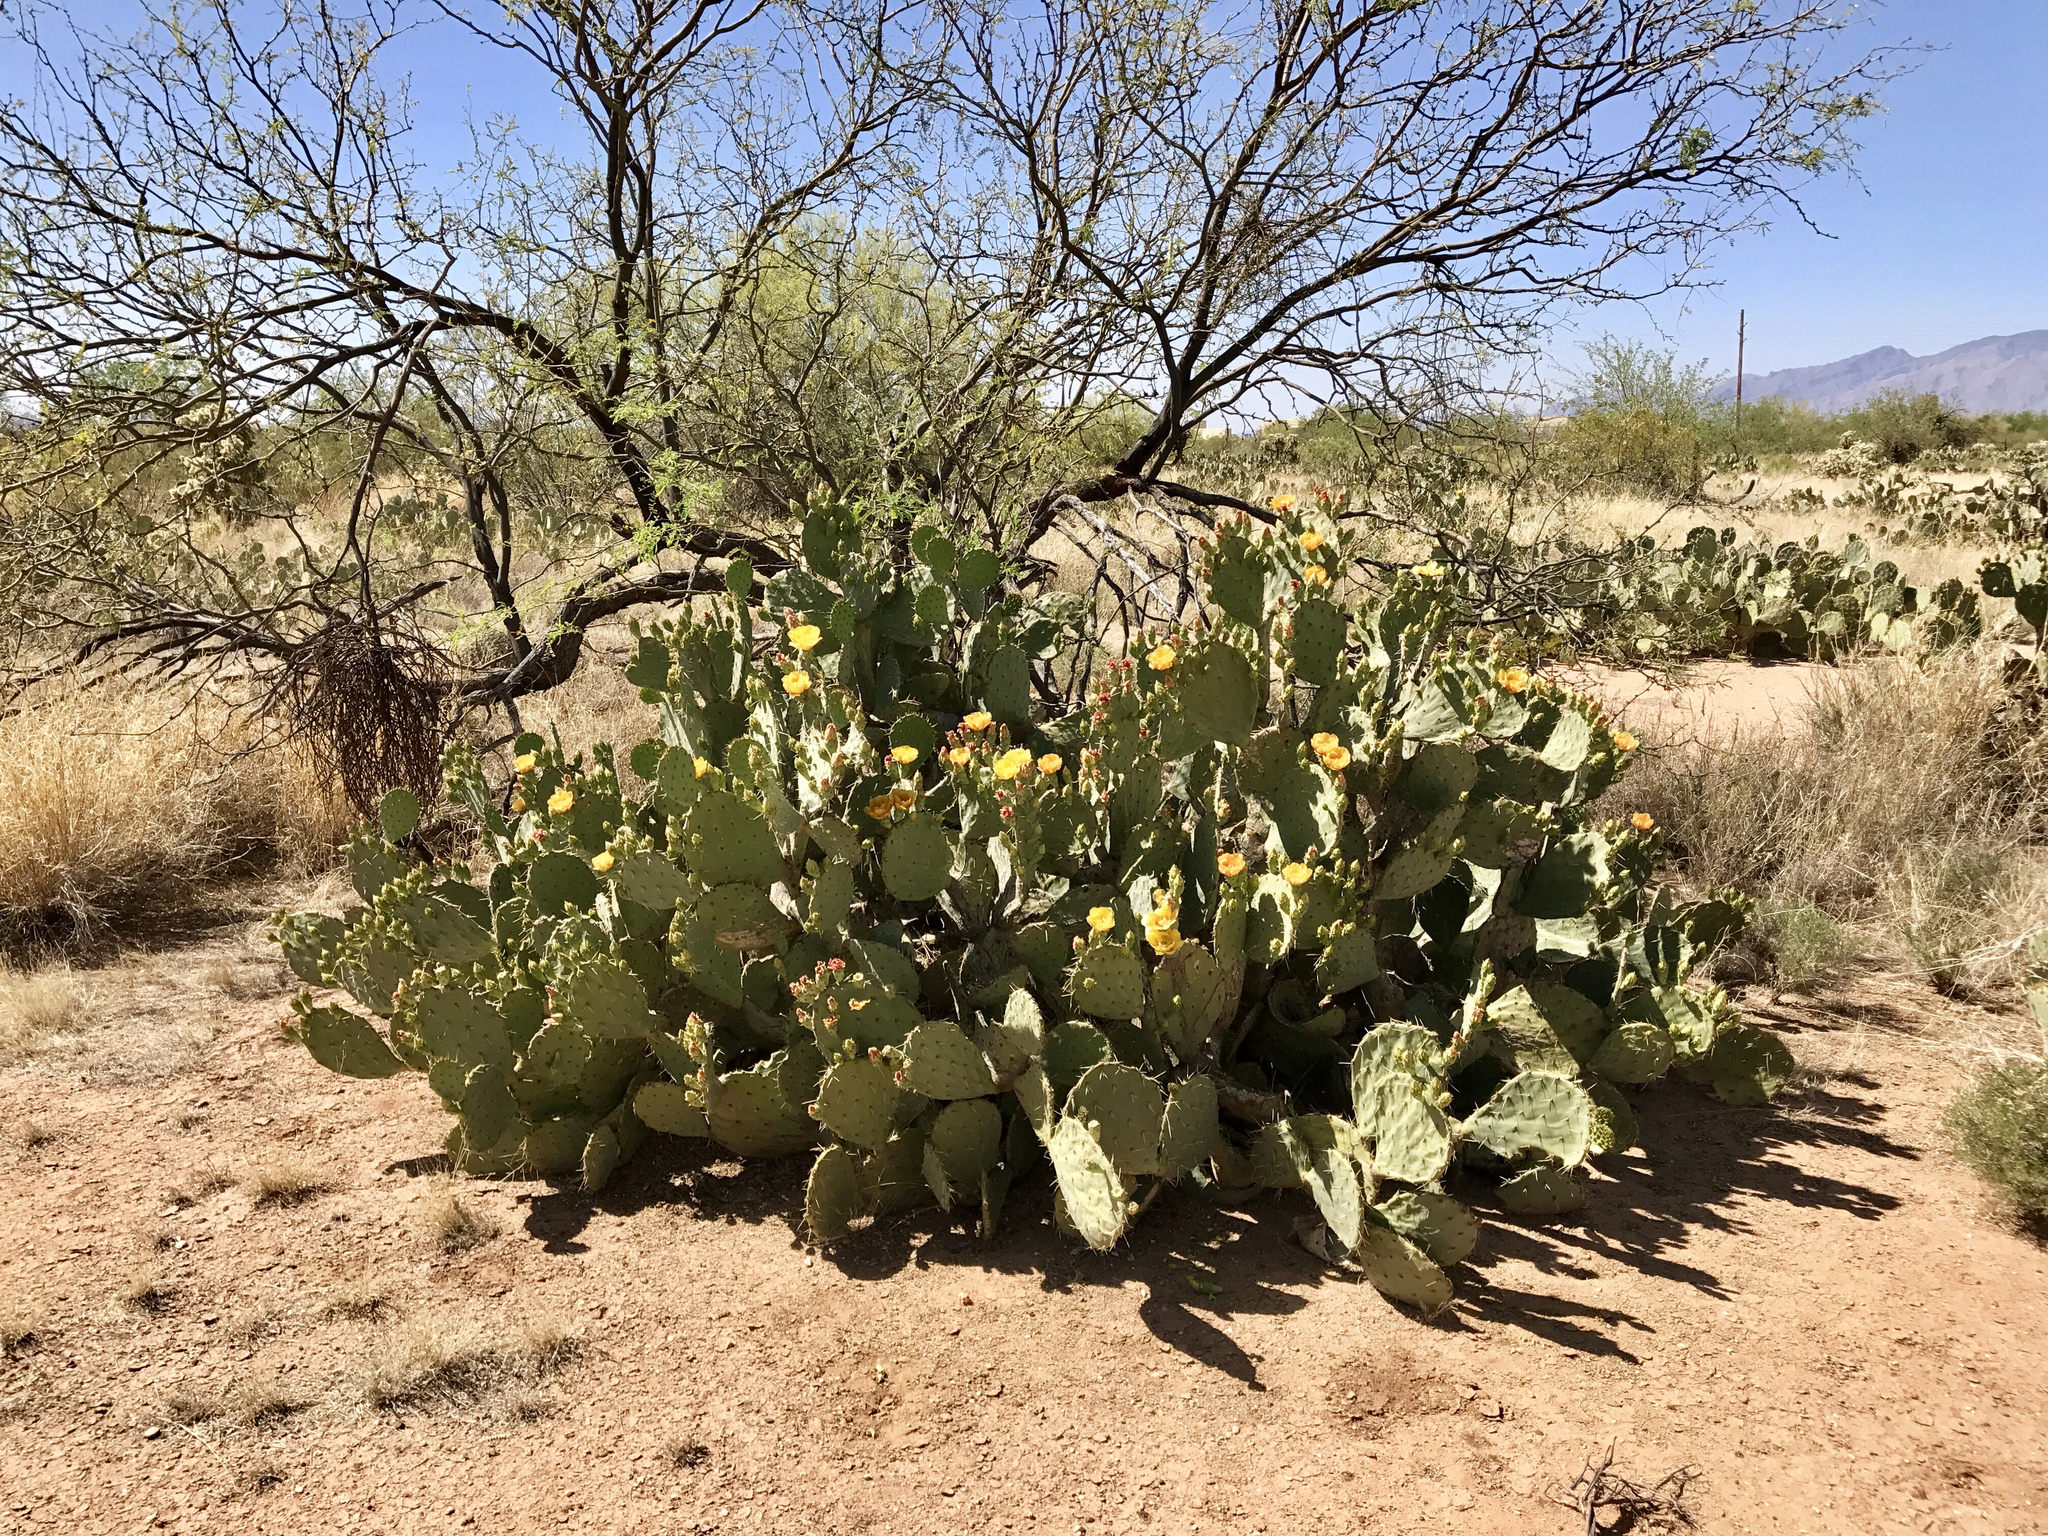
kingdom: Plantae
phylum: Tracheophyta
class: Magnoliopsida
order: Caryophyllales
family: Cactaceae
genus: Opuntia
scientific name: Opuntia phaeacantha
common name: New mexico prickly-pear
